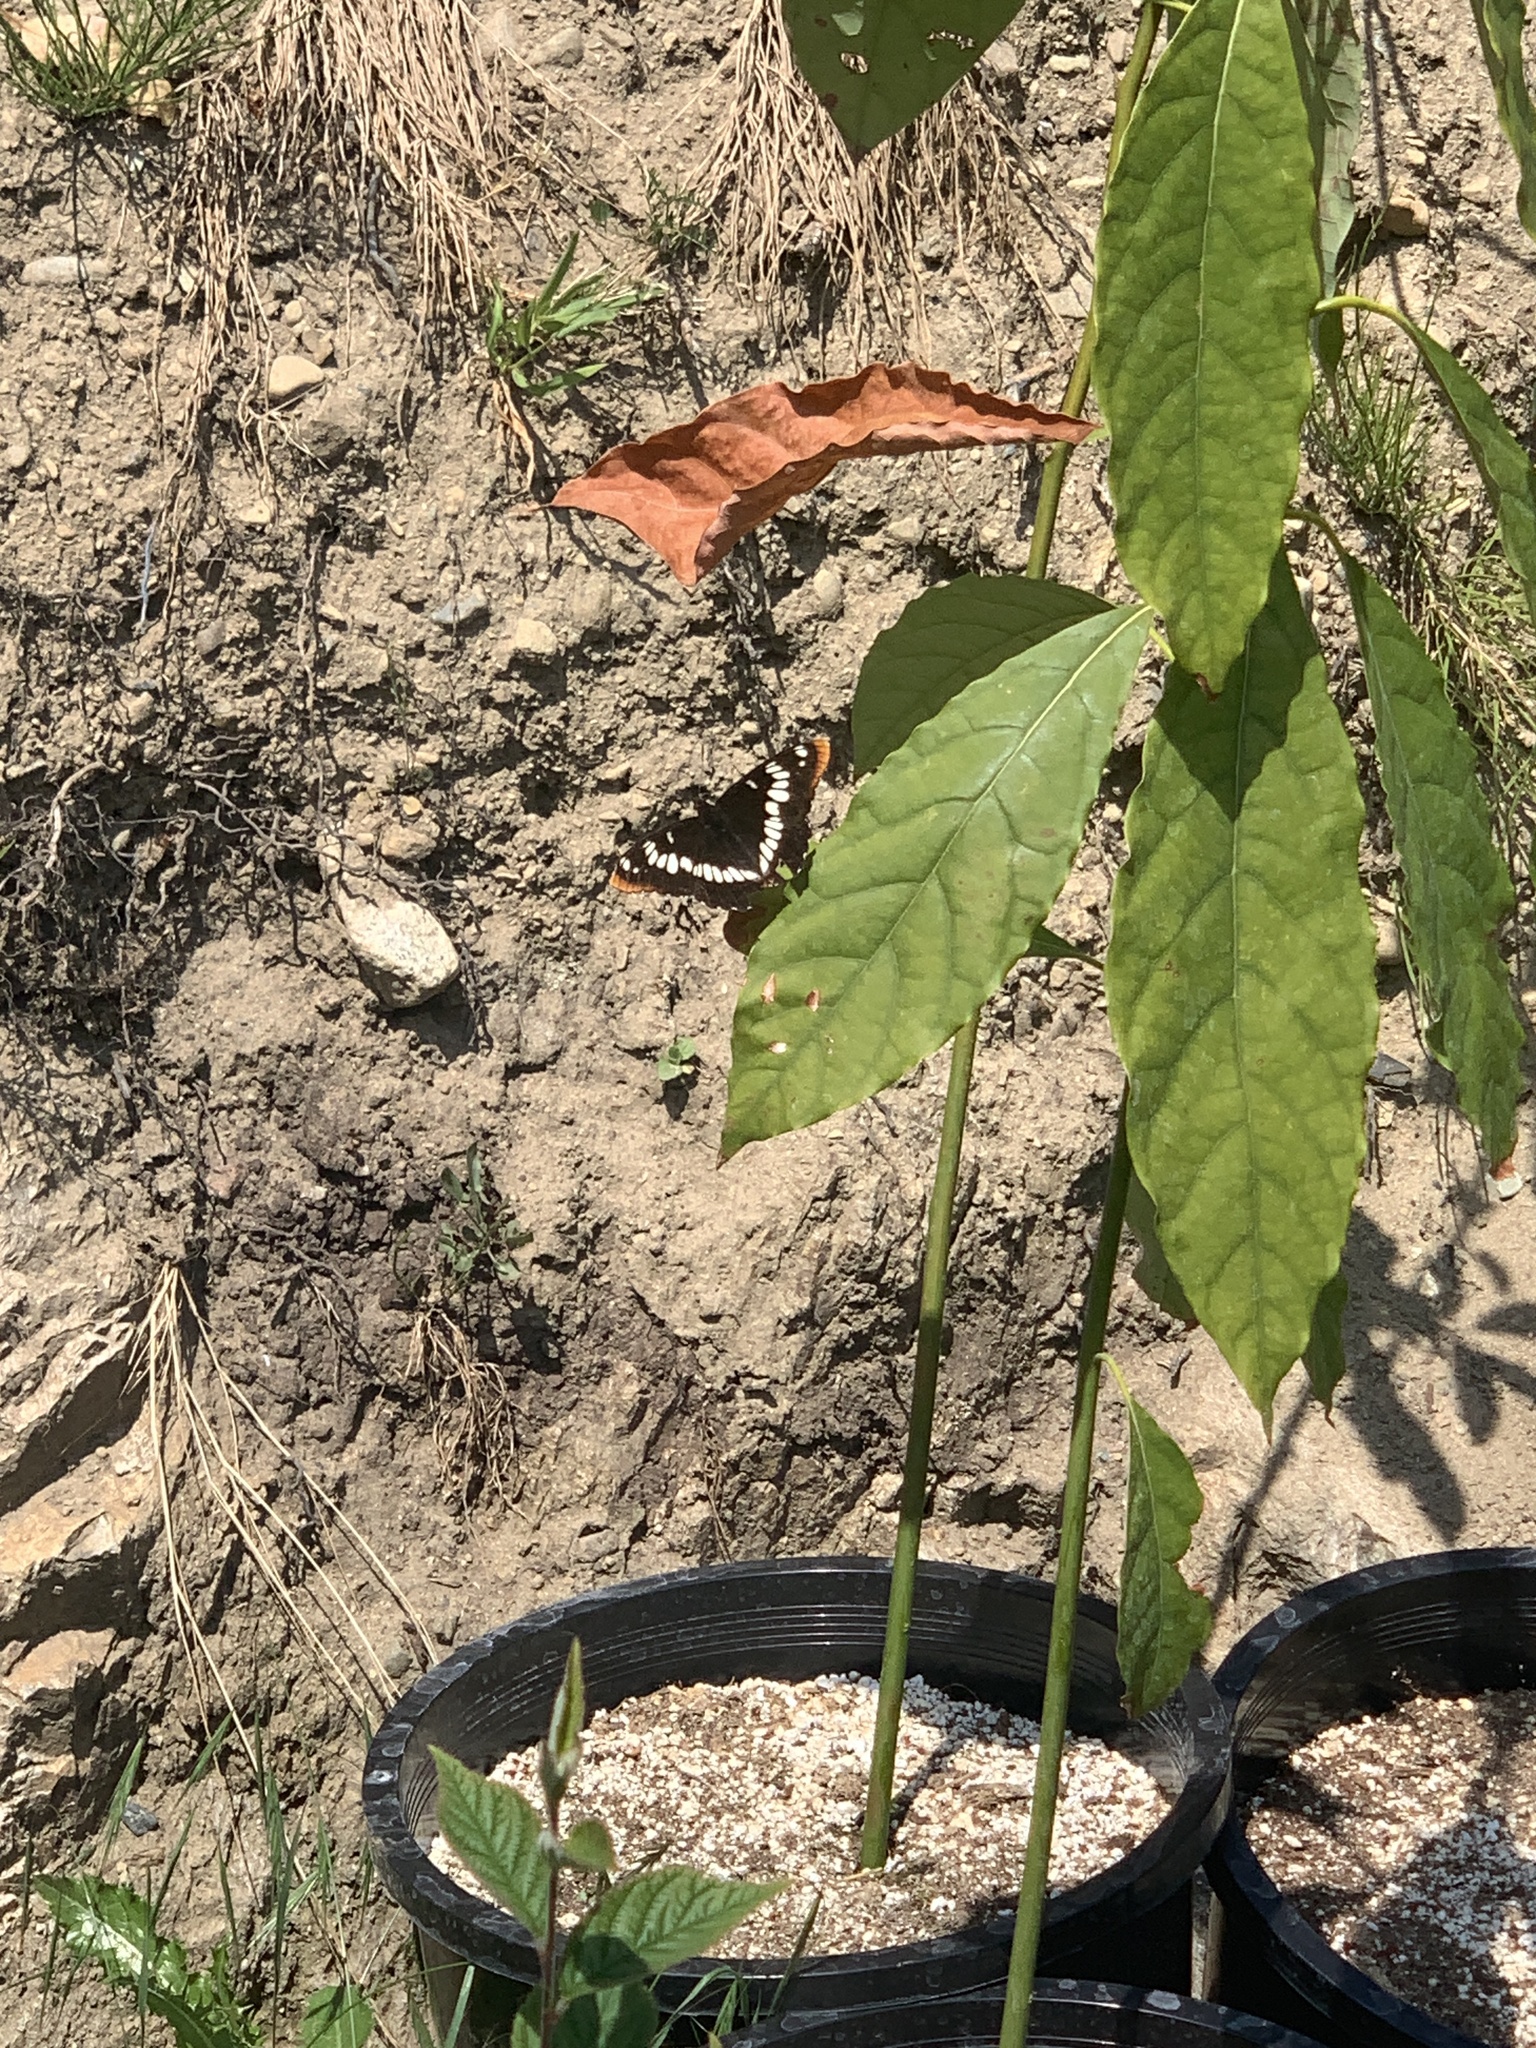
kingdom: Animalia
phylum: Arthropoda
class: Insecta
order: Lepidoptera
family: Nymphalidae
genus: Limenitis
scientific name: Limenitis lorquini
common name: Lorquin's admiral
